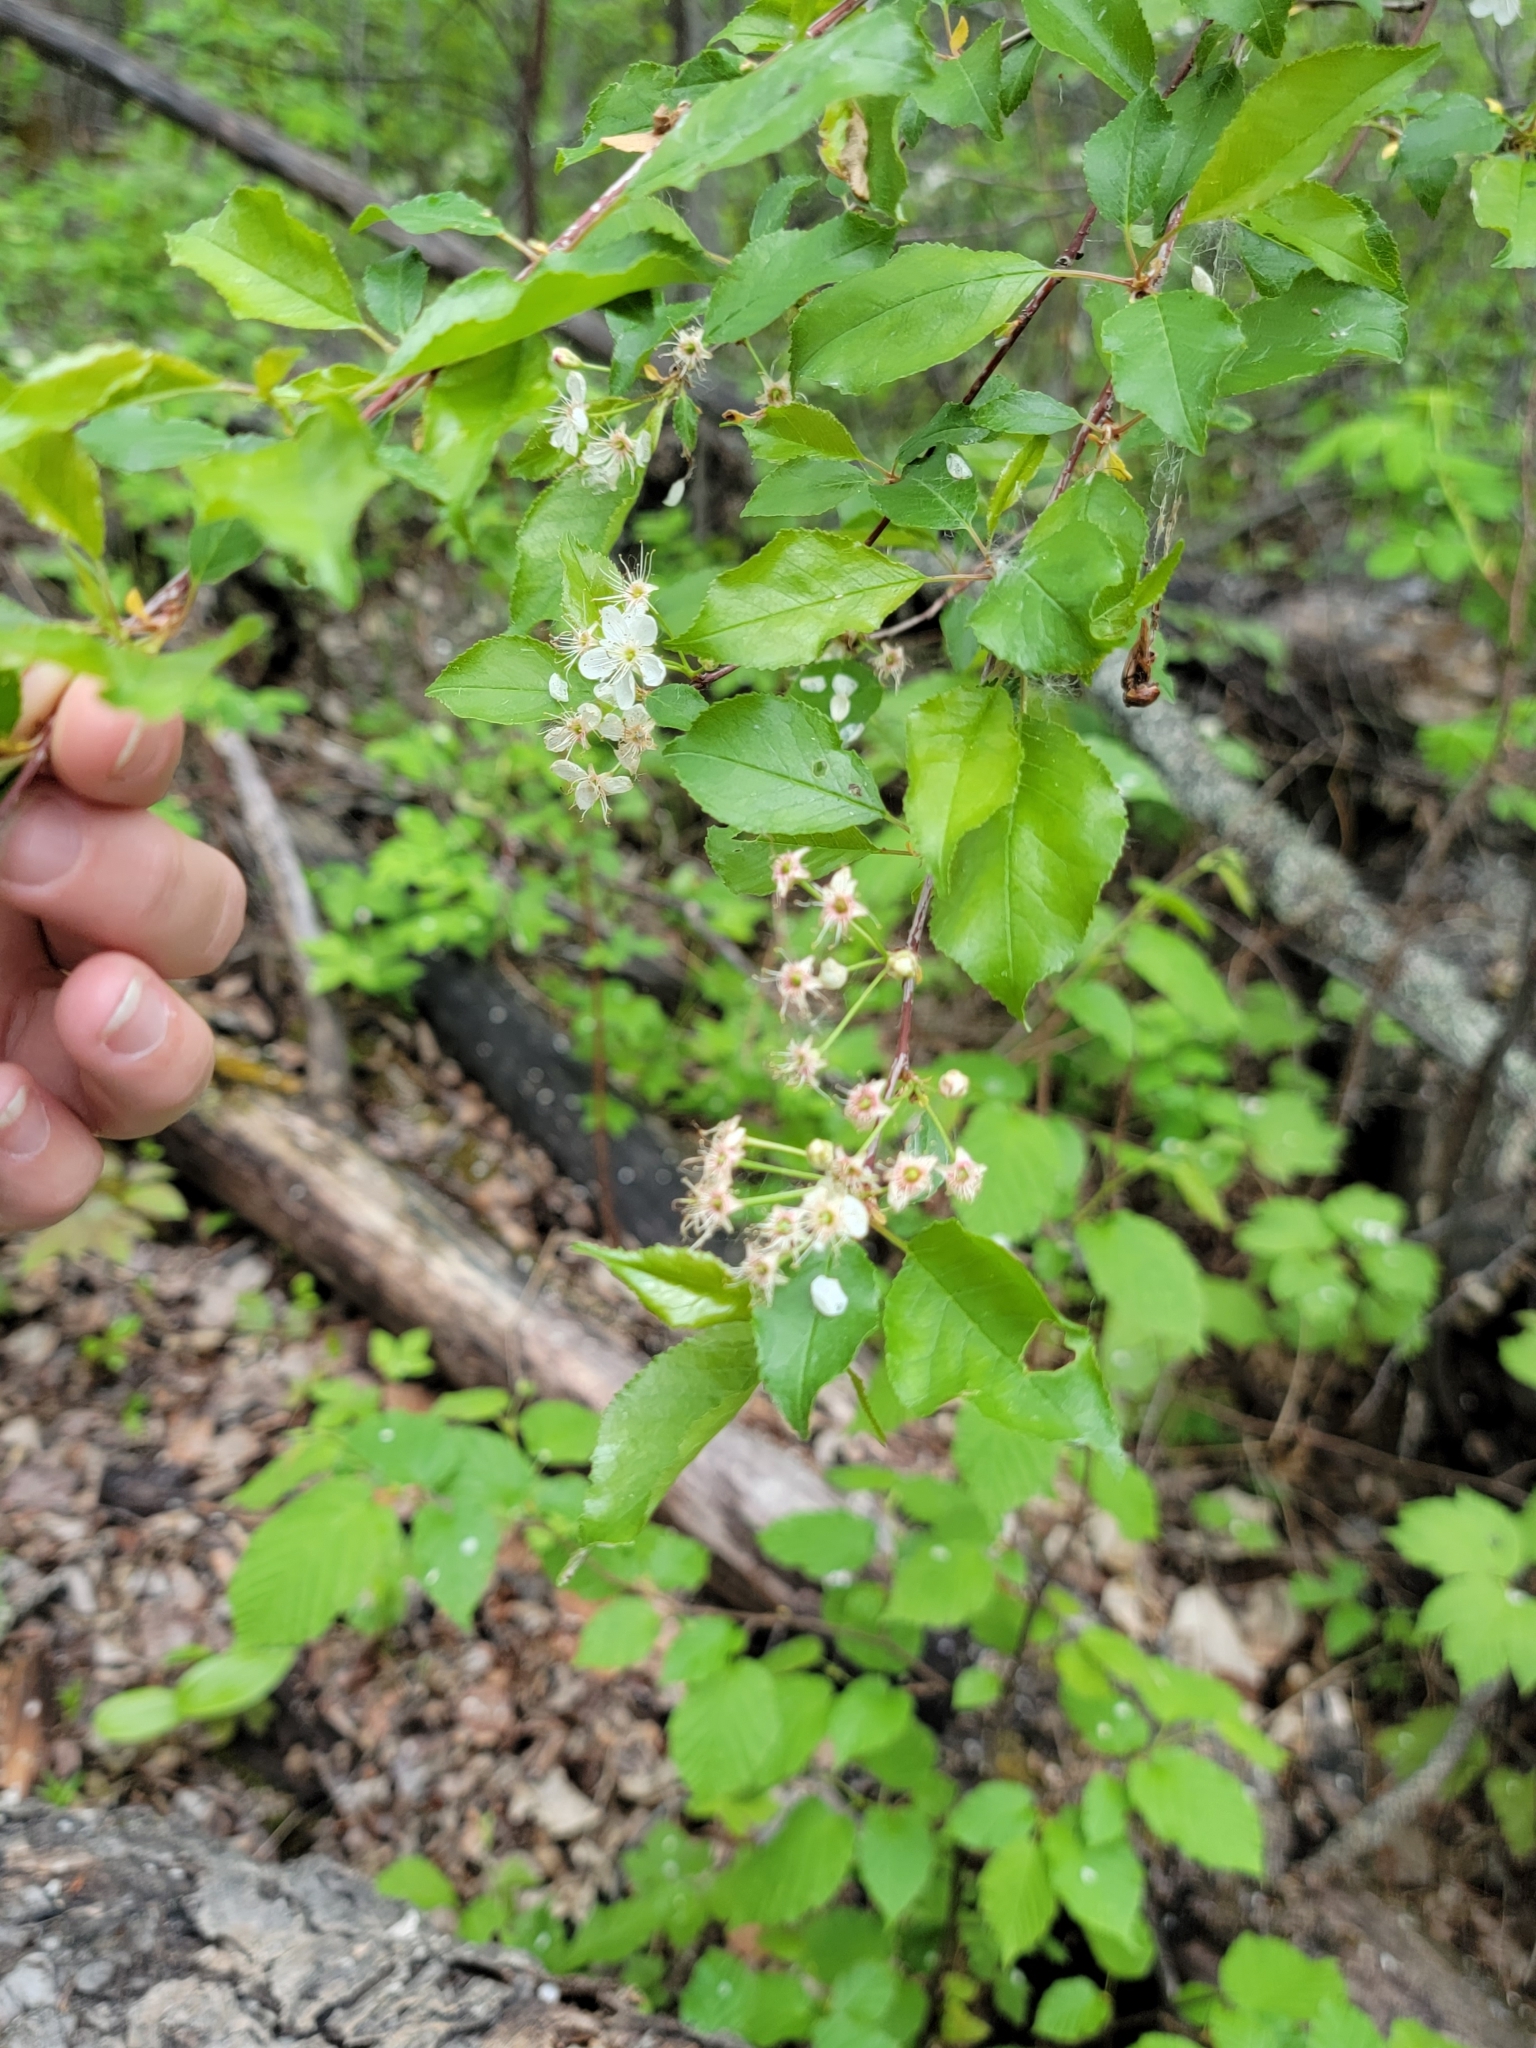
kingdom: Plantae
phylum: Tracheophyta
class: Magnoliopsida
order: Rosales
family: Rosaceae
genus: Prunus
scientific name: Prunus pensylvanica
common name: Pin cherry
